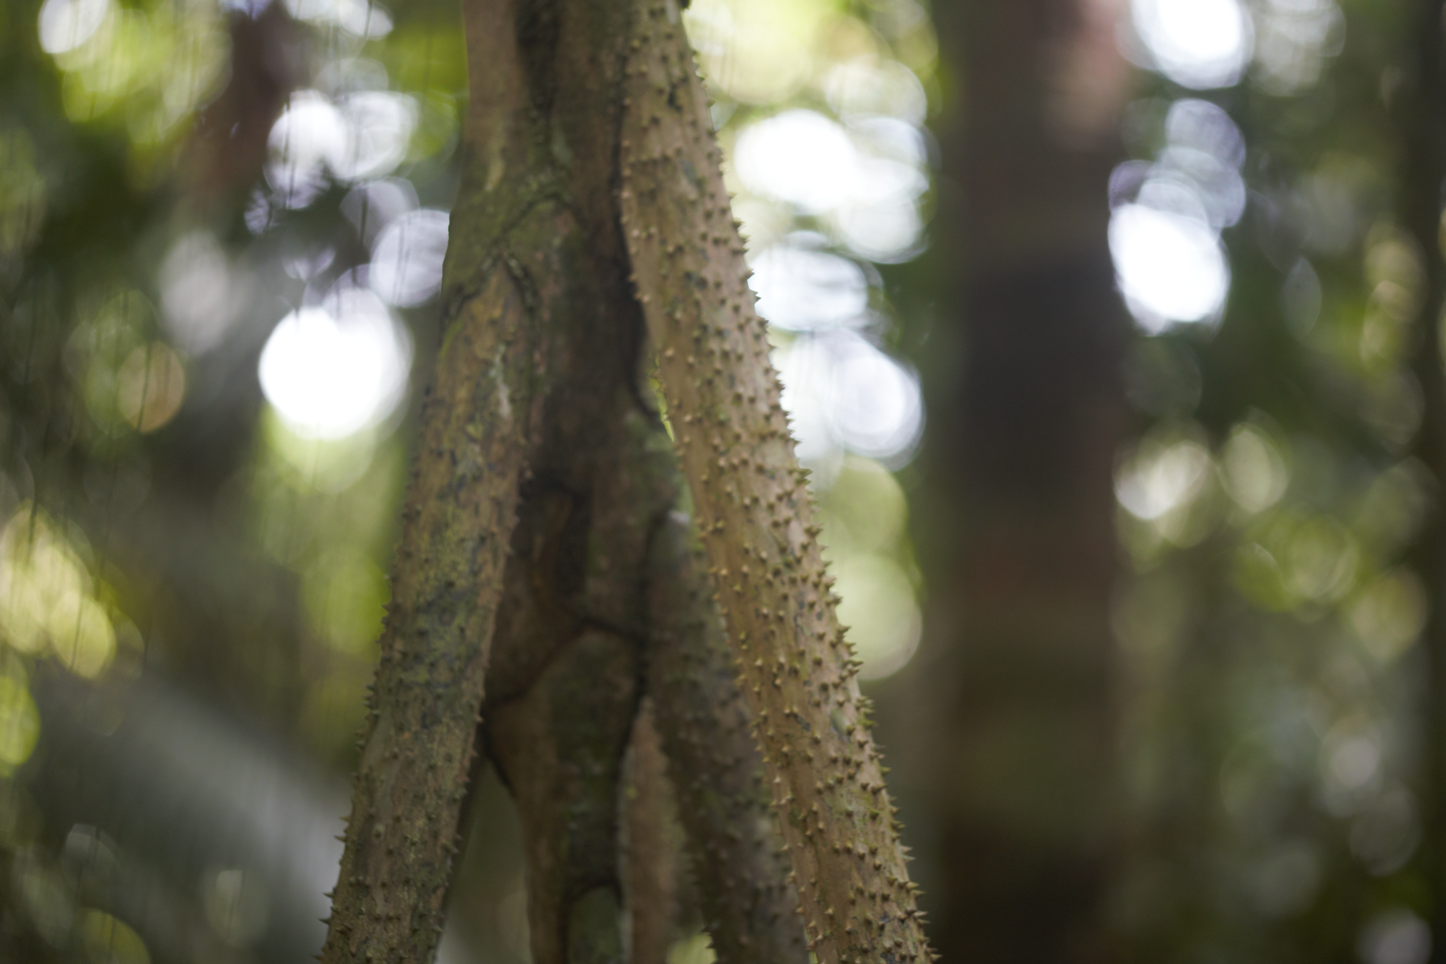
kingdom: Plantae
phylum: Tracheophyta
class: Liliopsida
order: Arecales
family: Arecaceae
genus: Socratea
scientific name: Socratea exorrhiza
